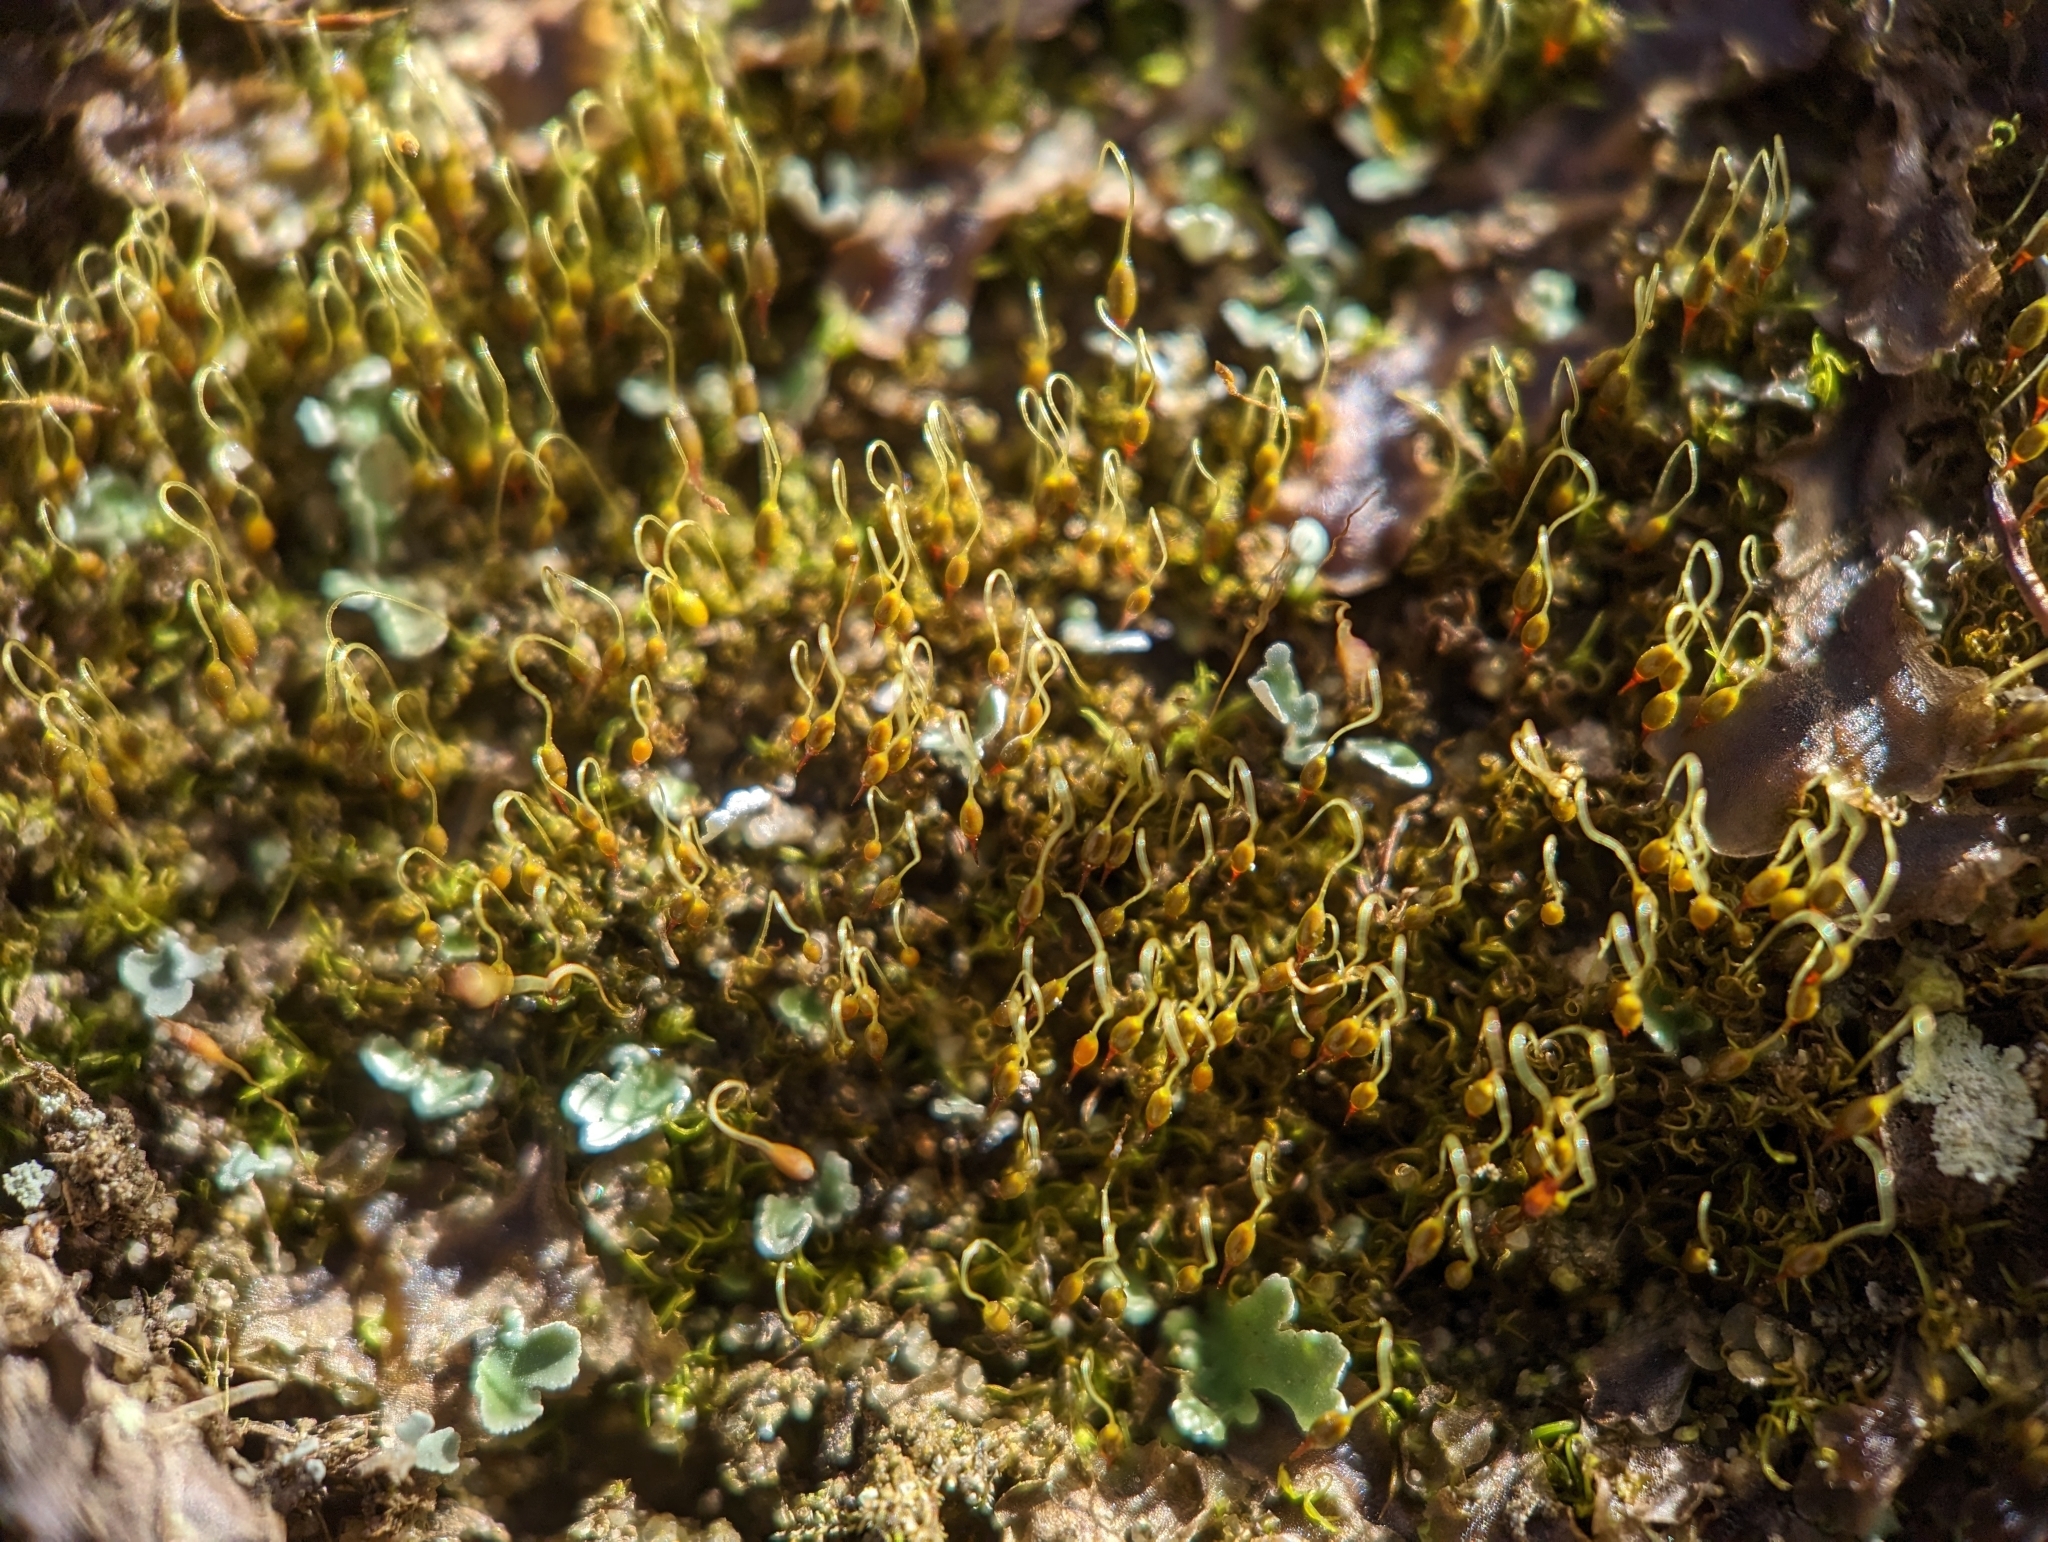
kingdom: Plantae
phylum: Bryophyta
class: Bryopsida
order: Grimmiales
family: Ptychomitriaceae
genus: Campylostelium
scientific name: Campylostelium saxicola
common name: Sandstone swan-neck moss
